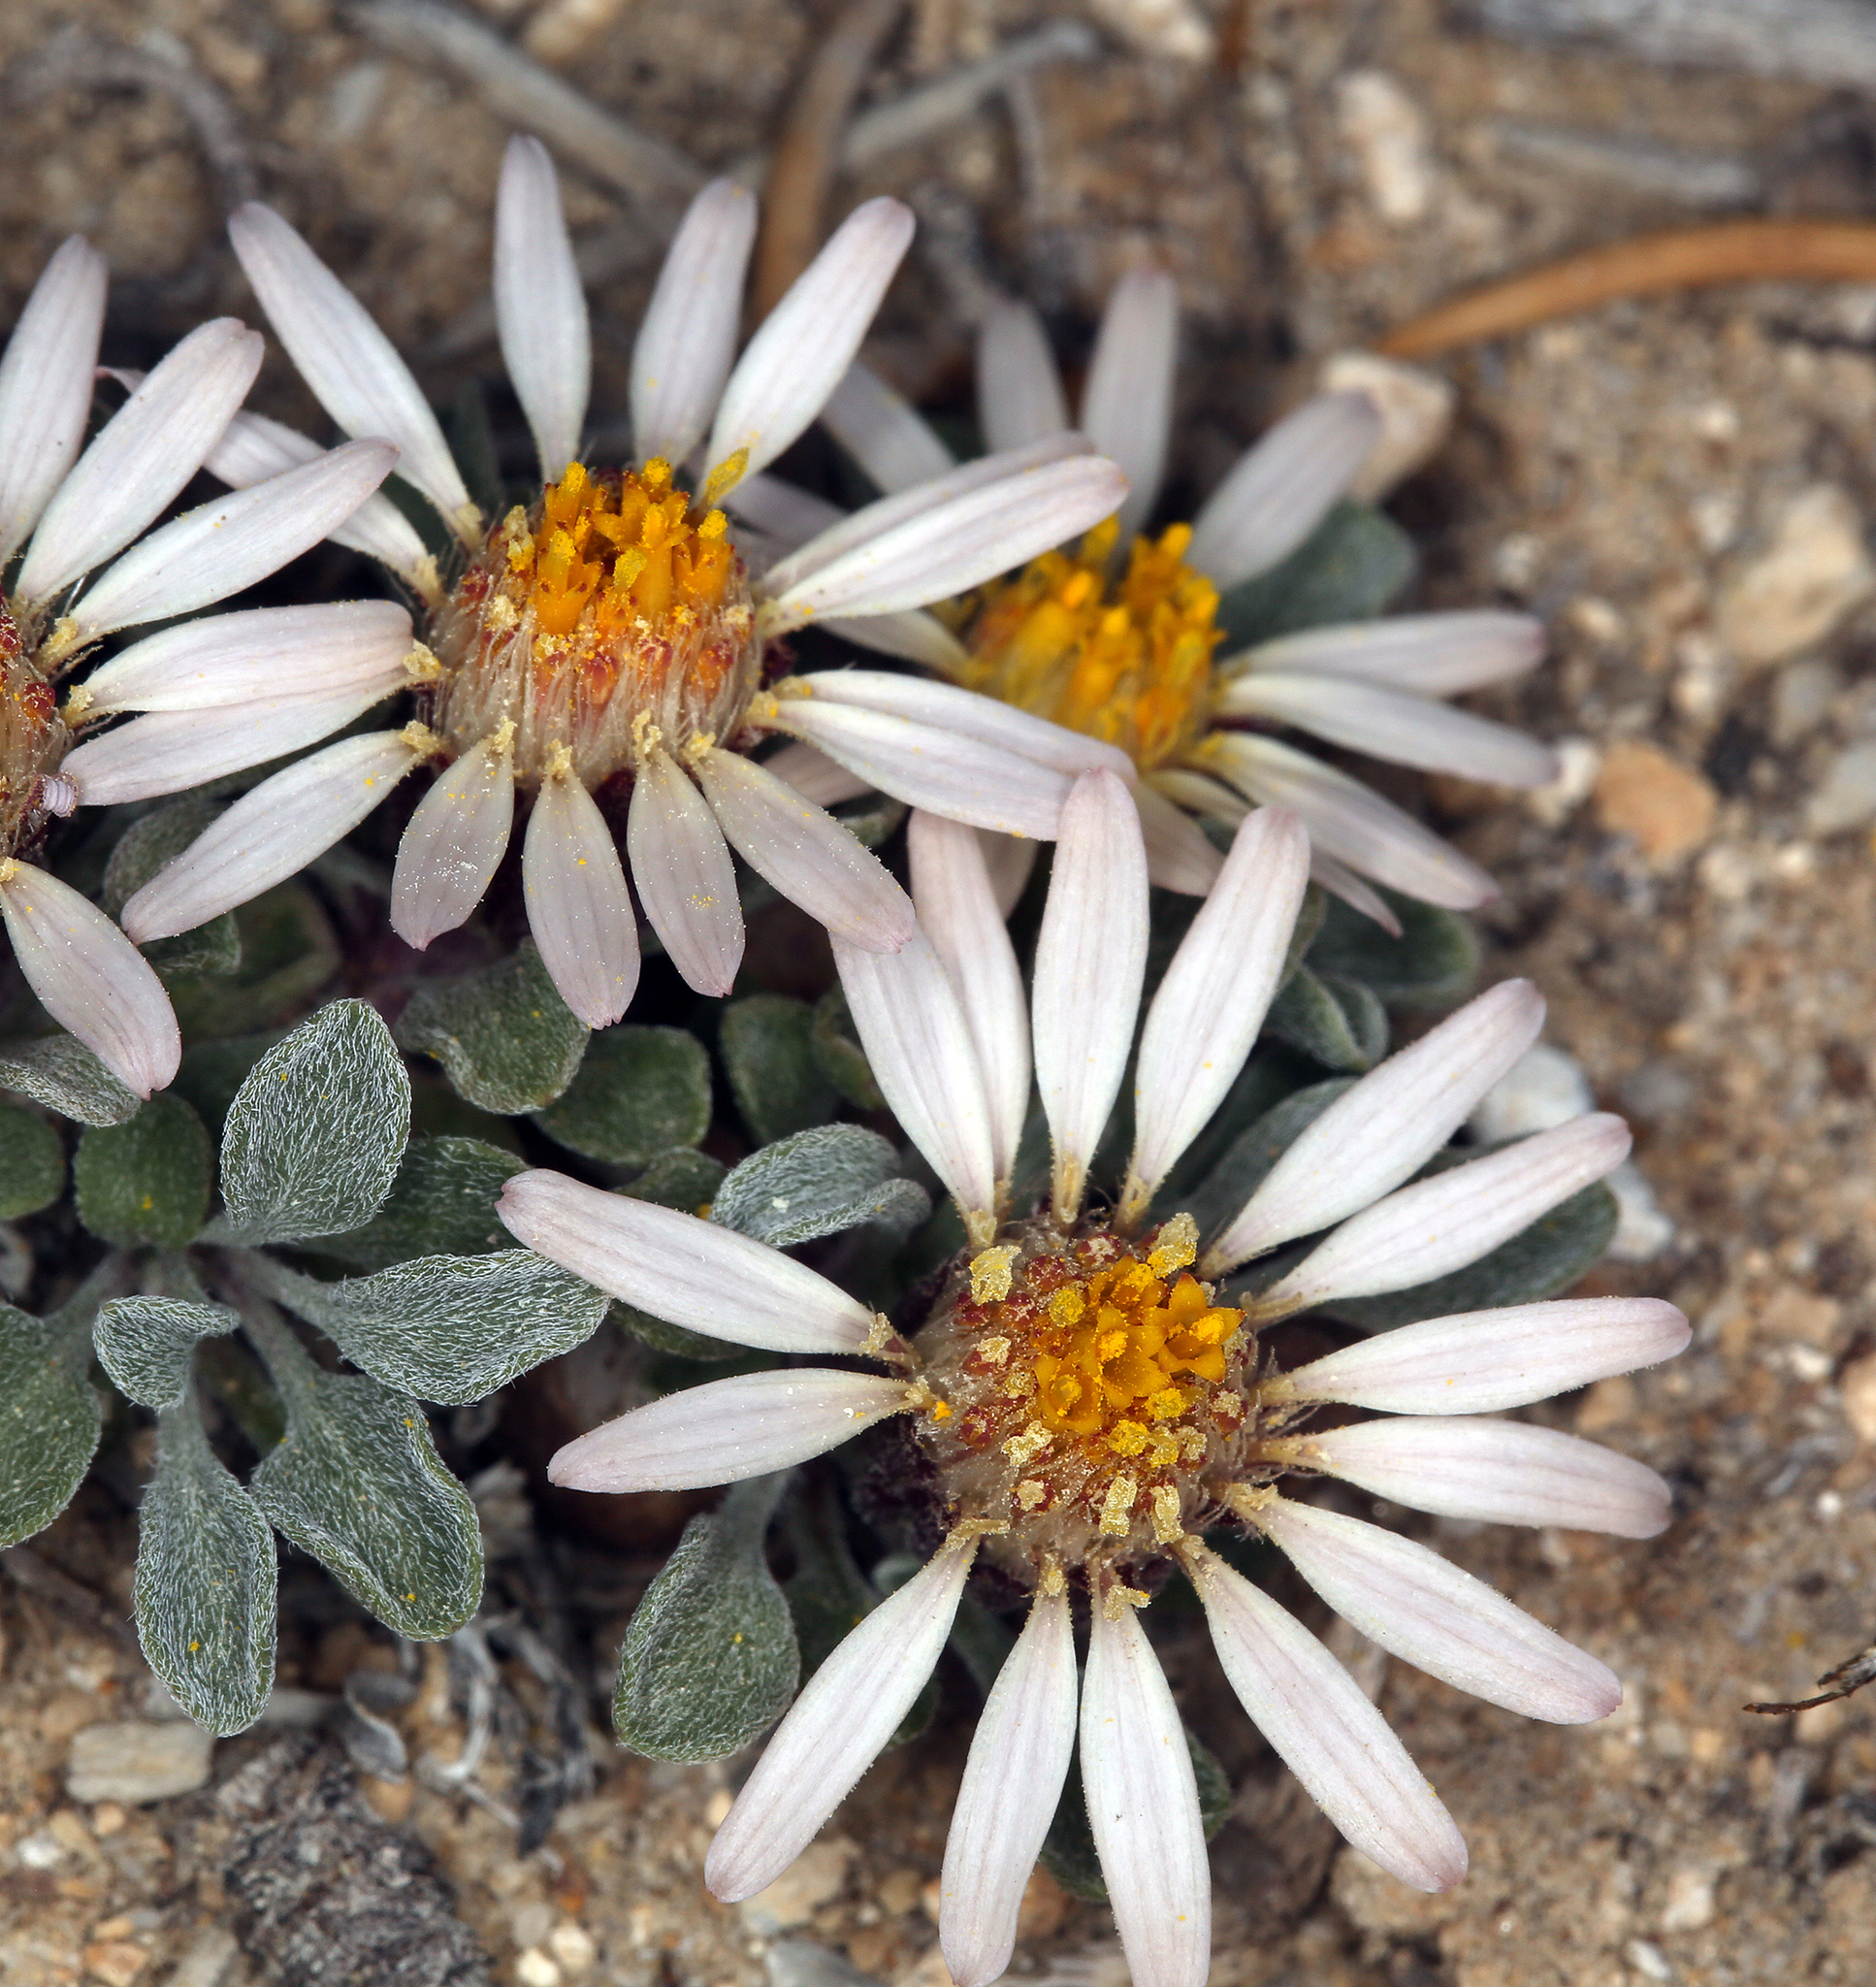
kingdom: Plantae
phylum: Tracheophyta
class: Magnoliopsida
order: Asterales
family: Asteraceae
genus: Townsendia
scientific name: Townsendia scapigera
